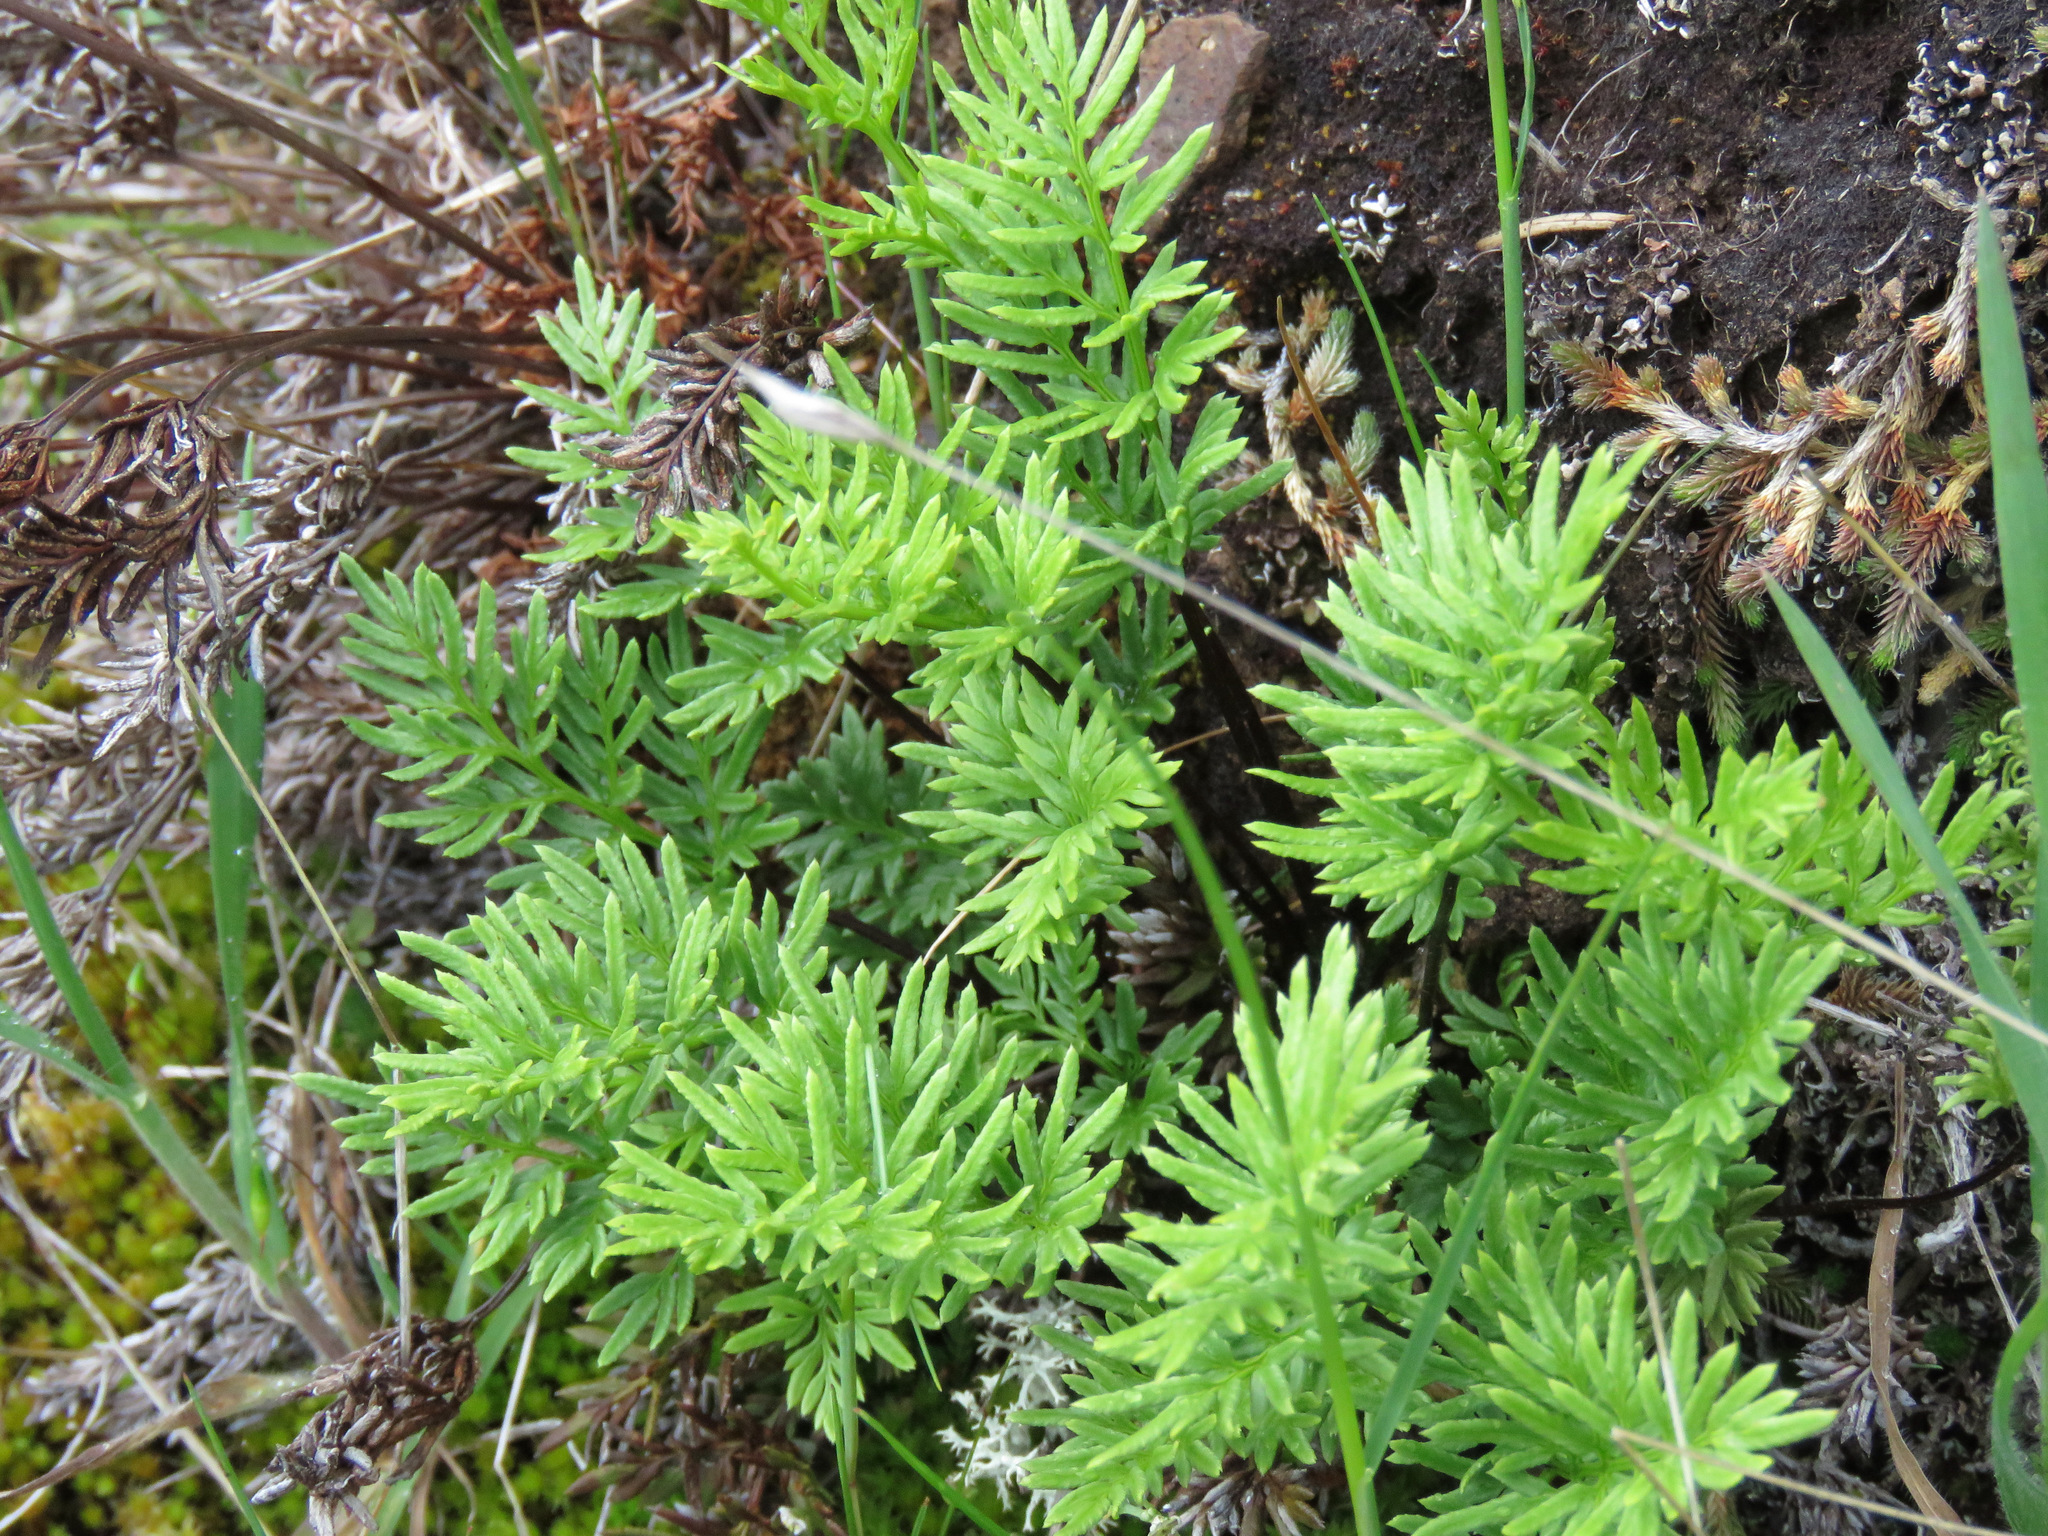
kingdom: Plantae
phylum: Tracheophyta
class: Polypodiopsida
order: Polypodiales
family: Pteridaceae
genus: Aspidotis
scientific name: Aspidotis densa
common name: Indian's dream
